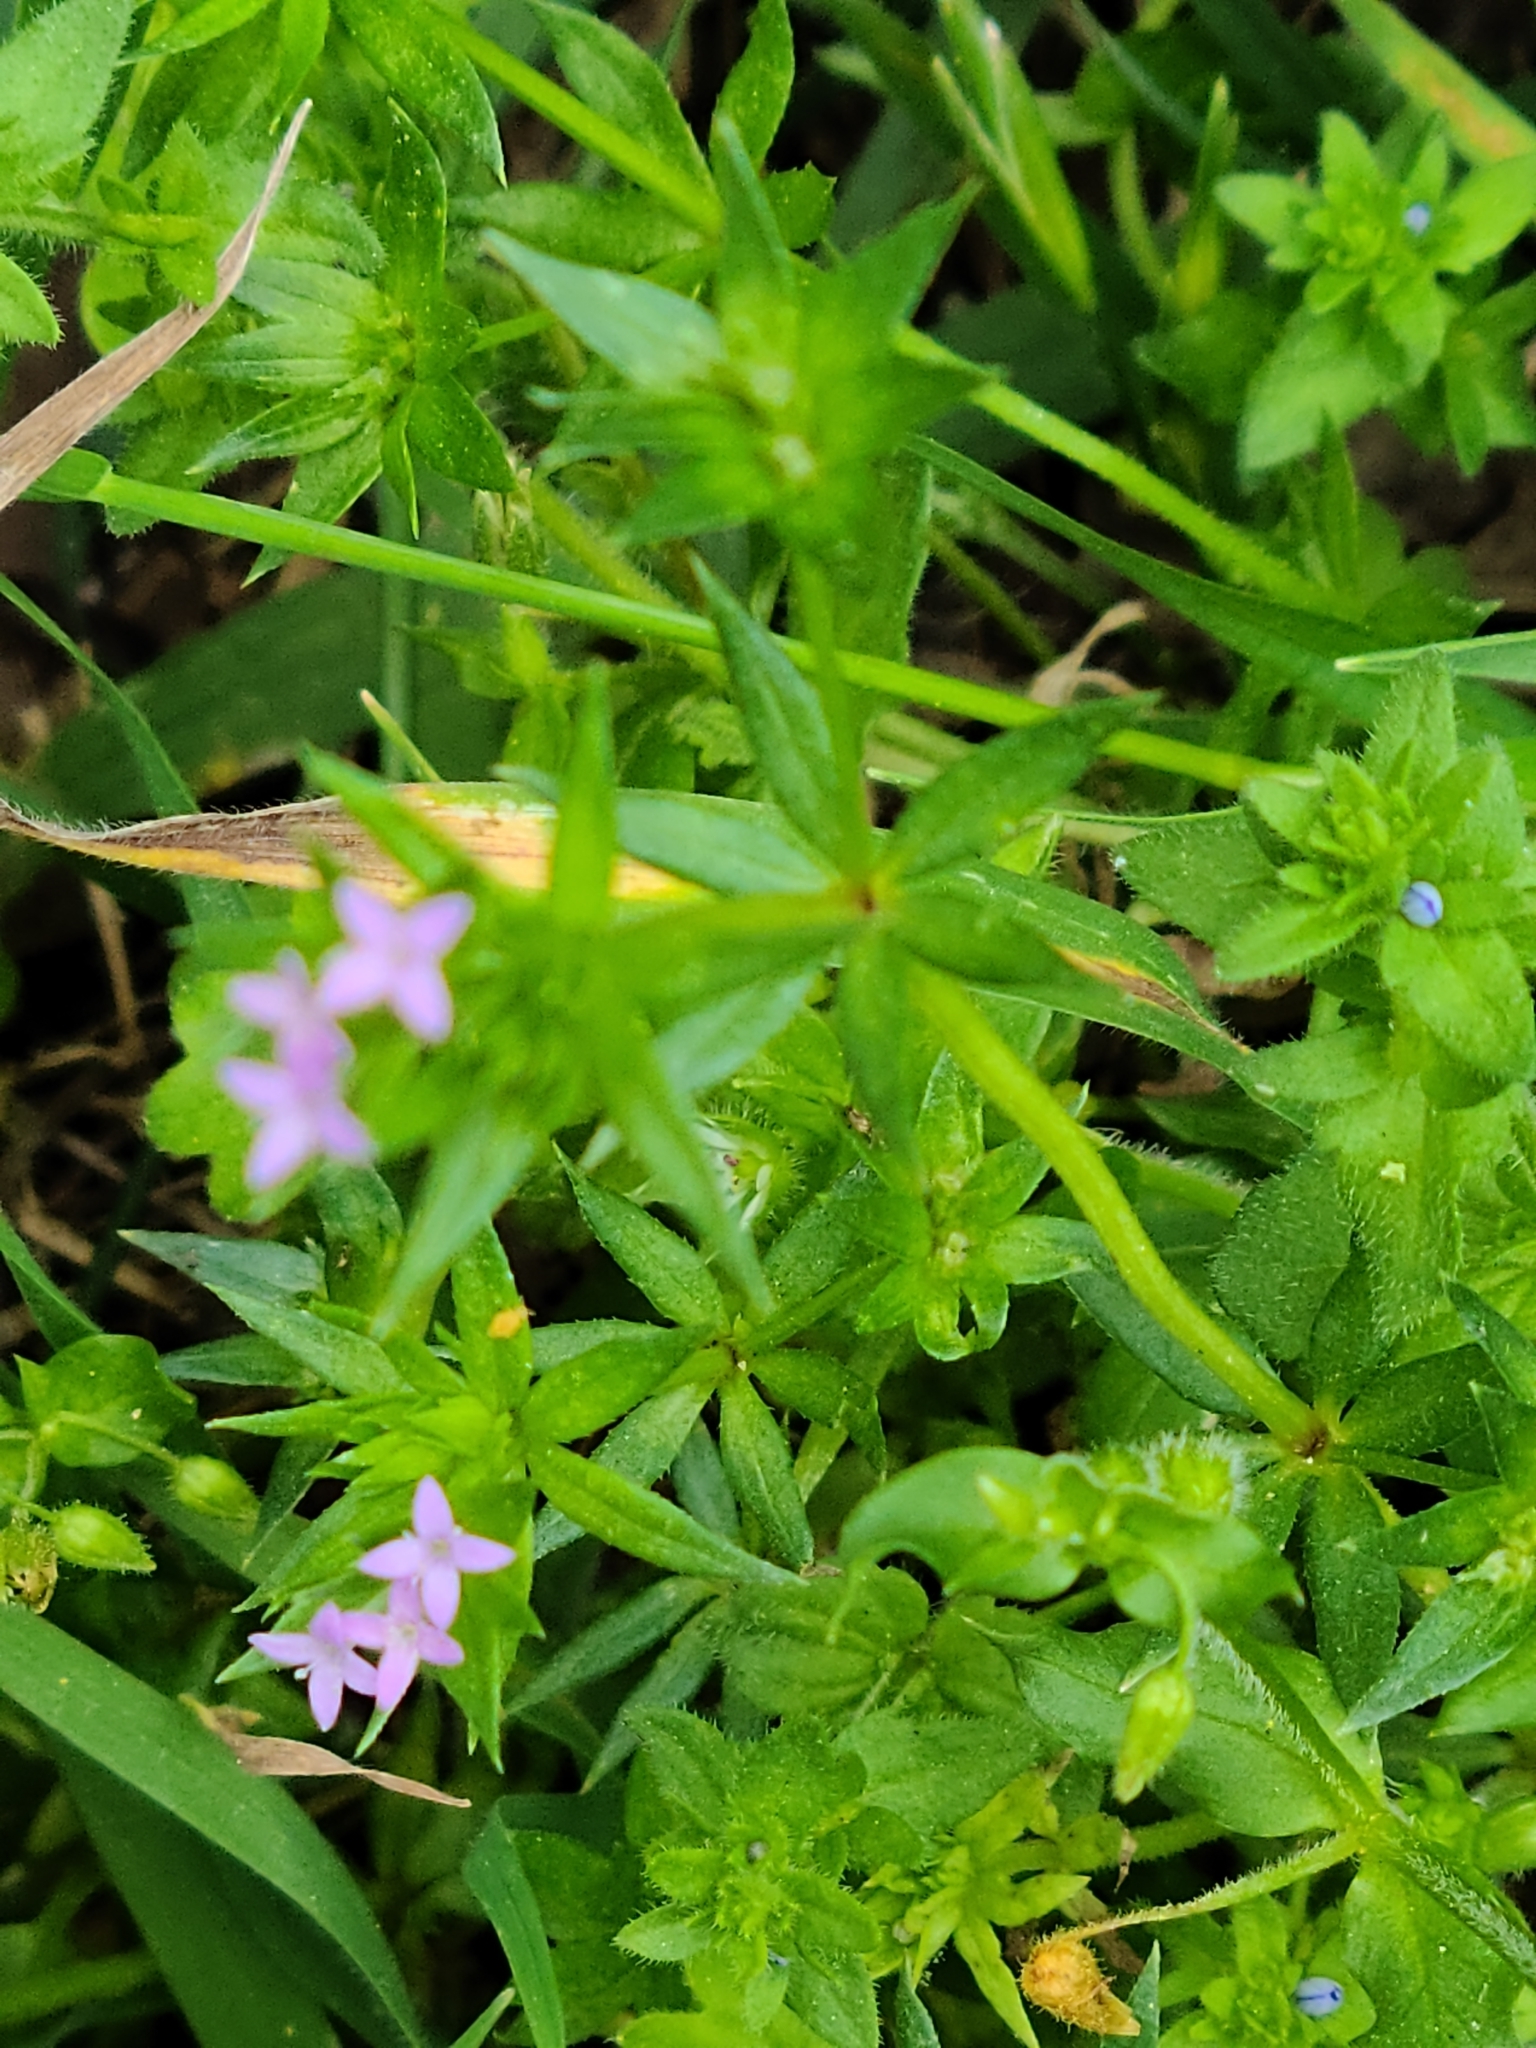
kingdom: Plantae
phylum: Tracheophyta
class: Magnoliopsida
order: Gentianales
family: Rubiaceae
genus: Sherardia
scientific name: Sherardia arvensis
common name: Field madder
